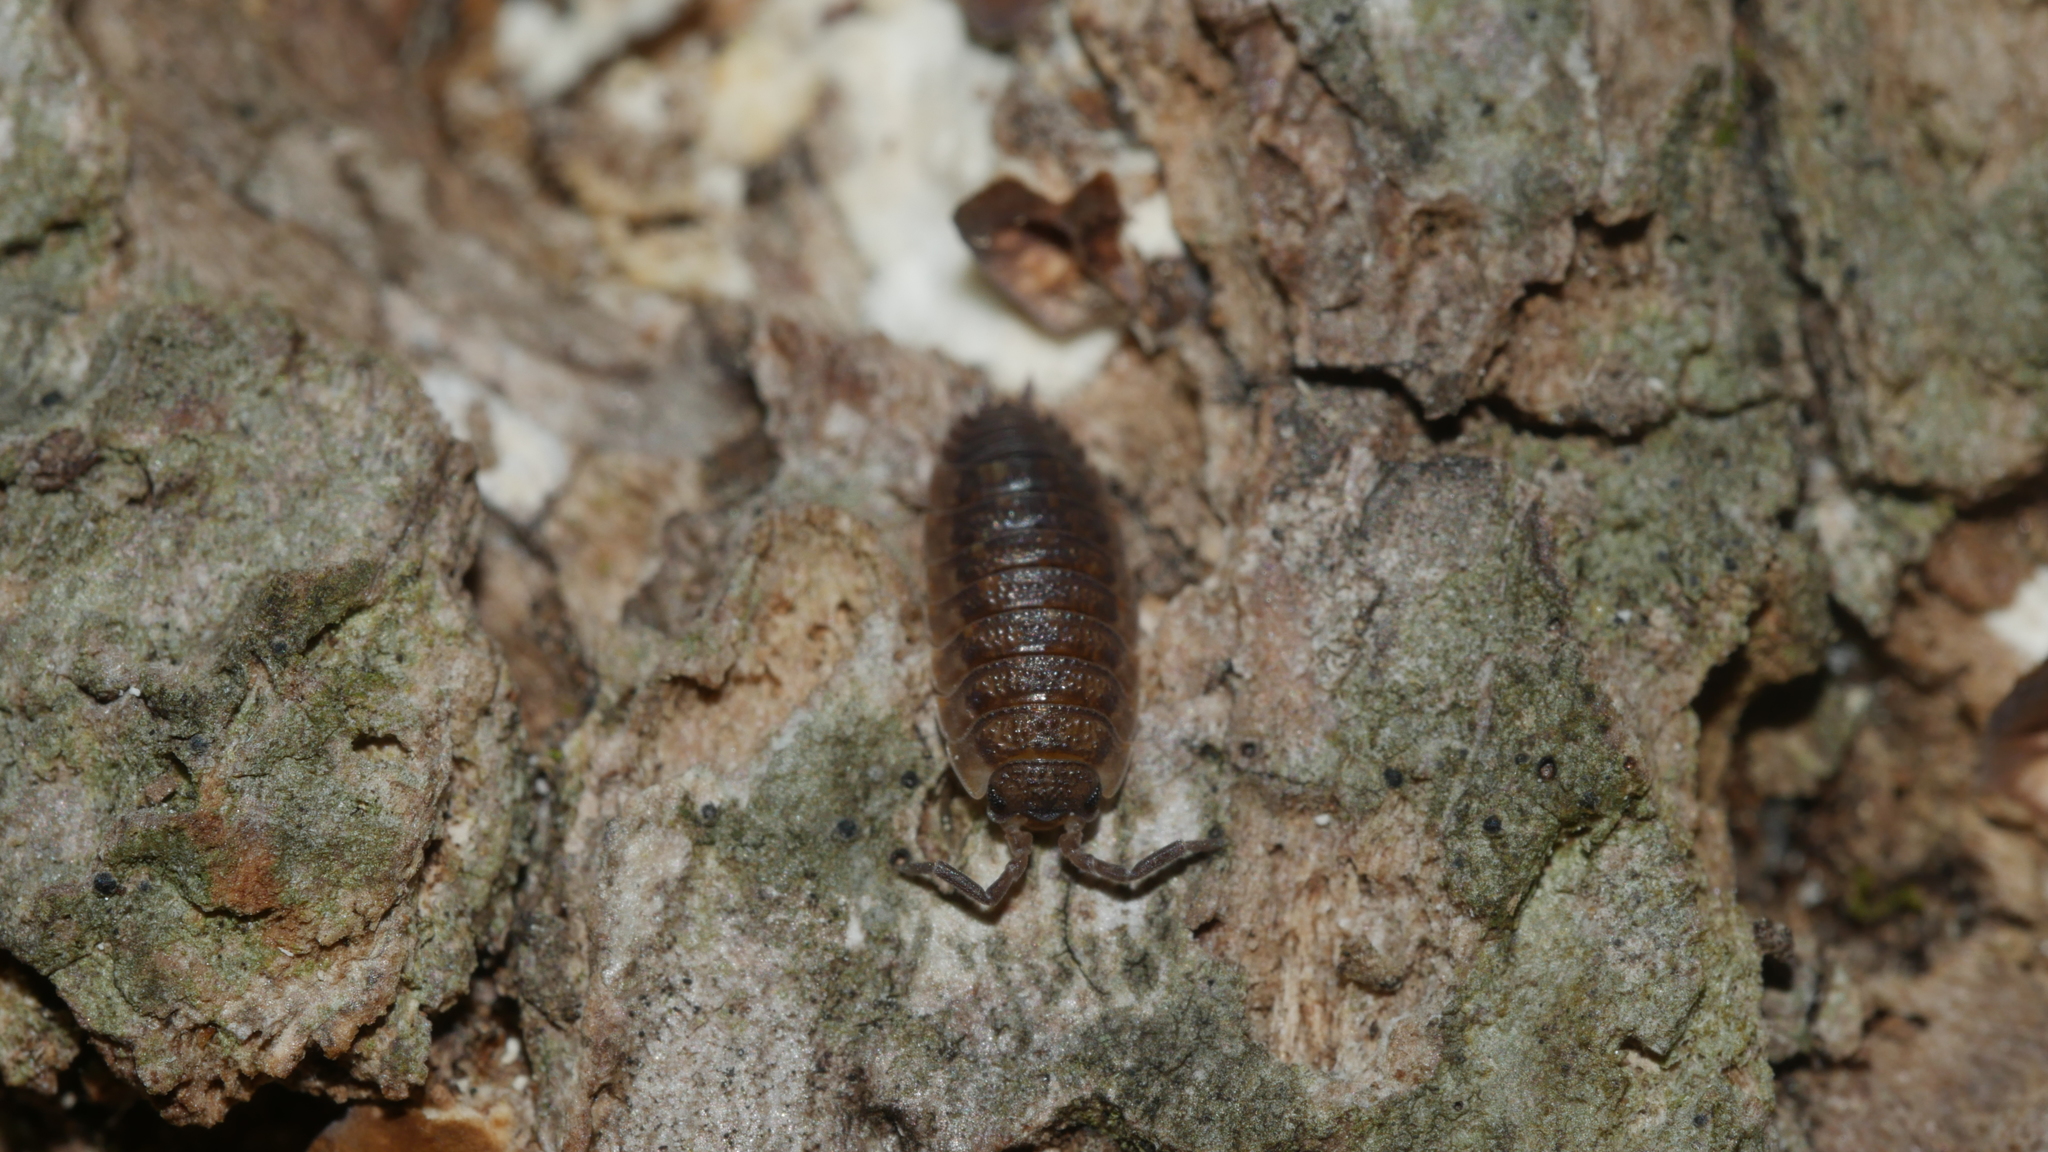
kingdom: Animalia
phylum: Arthropoda
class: Malacostraca
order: Isopoda
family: Porcellionidae
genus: Porcellio
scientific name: Porcellio scaber
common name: Common rough woodlouse
